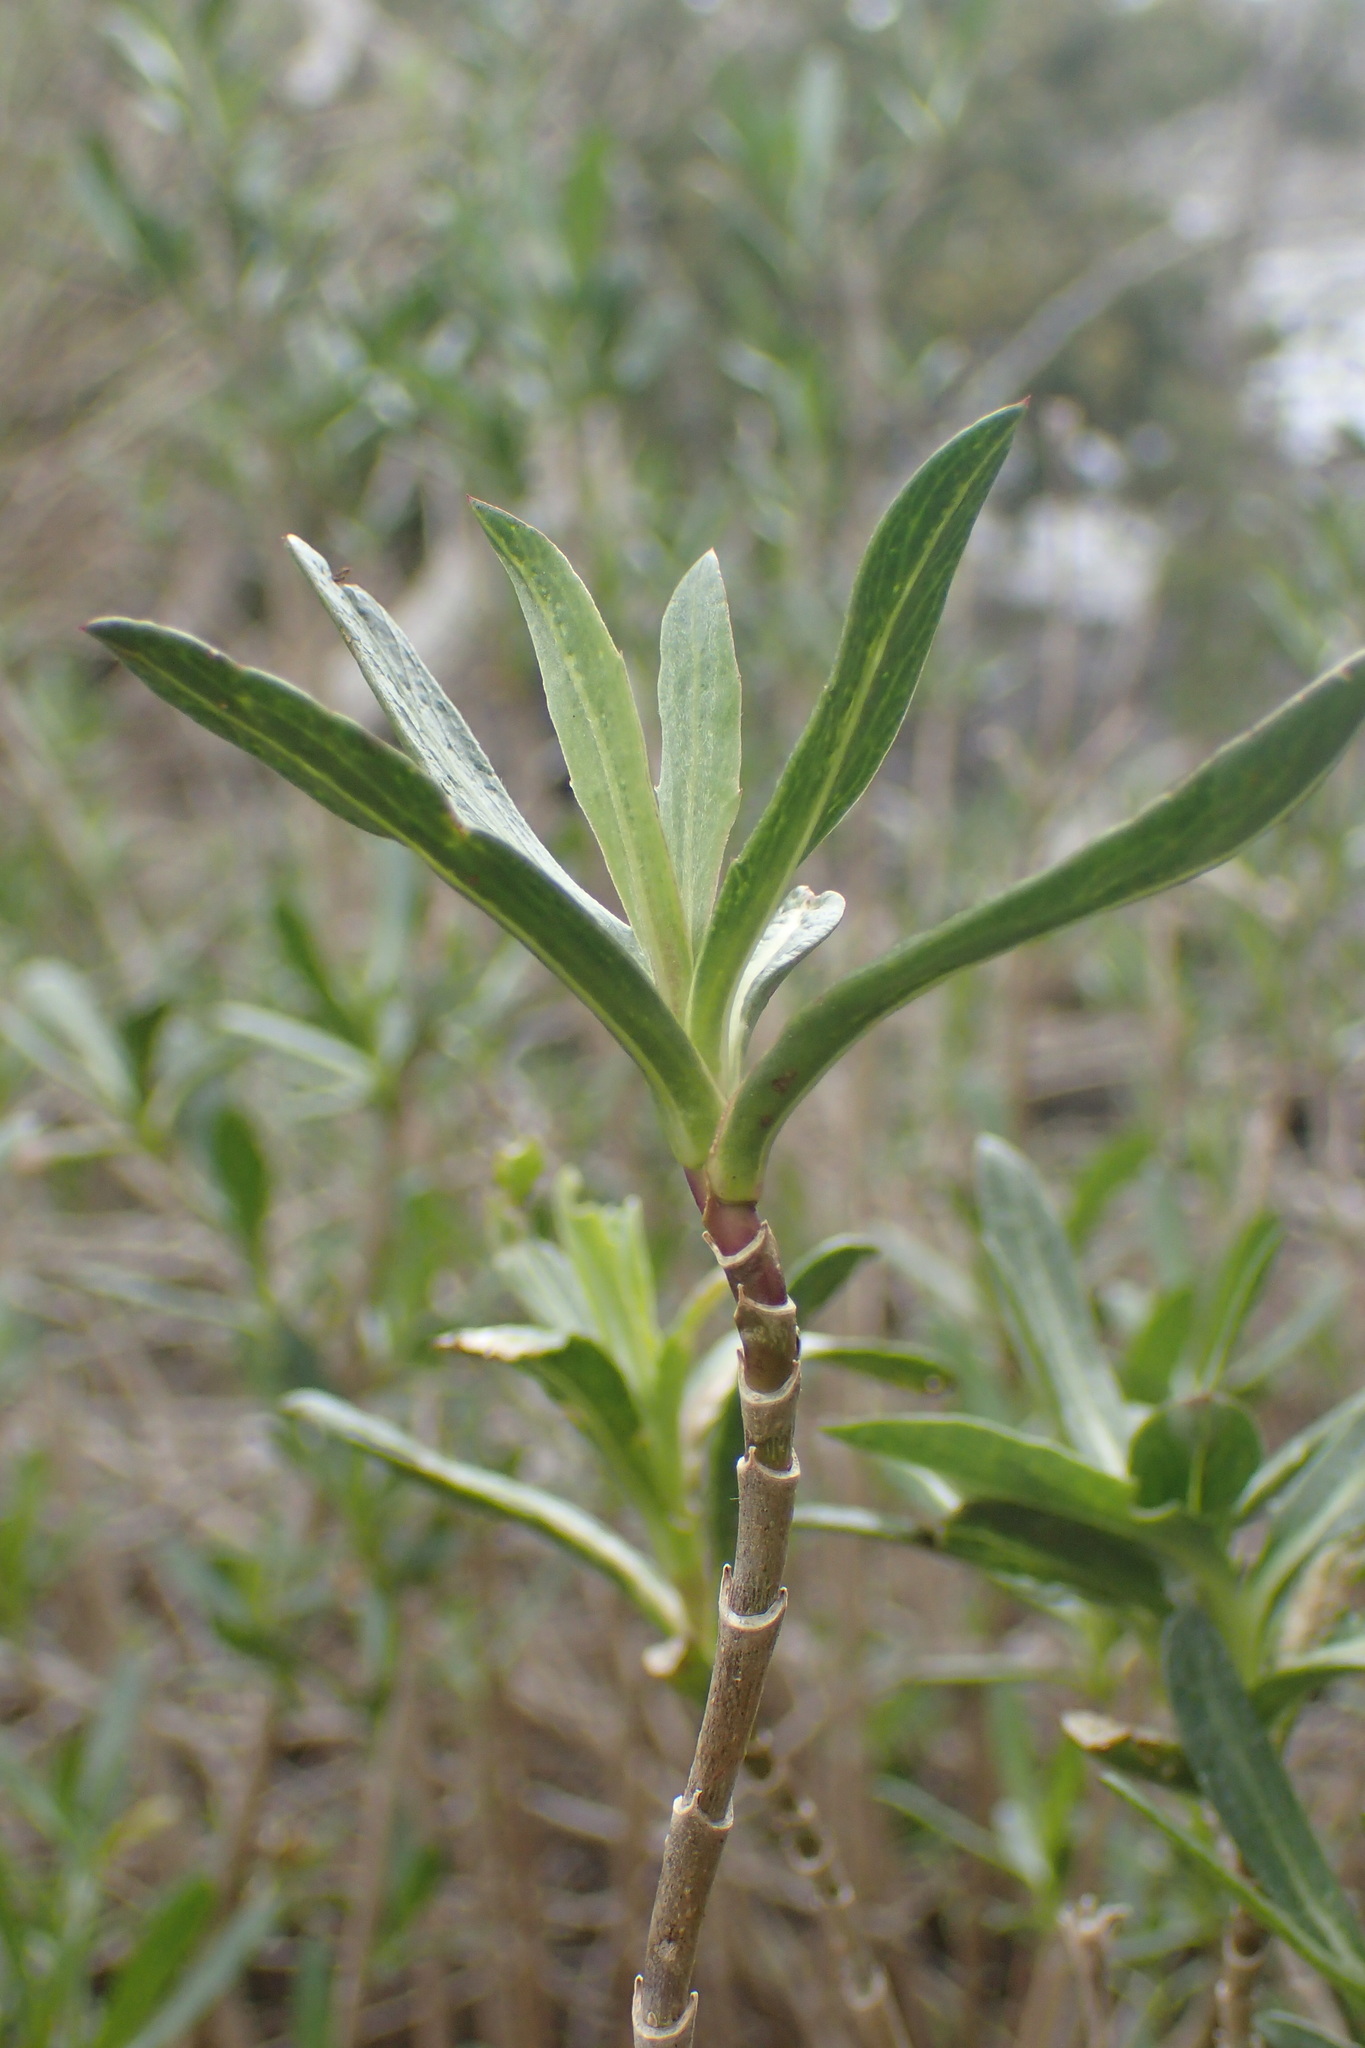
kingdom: Plantae
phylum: Tracheophyta
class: Magnoliopsida
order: Asterales
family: Asteraceae
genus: Borrichia
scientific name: Borrichia frutescens
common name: Sea oxeye
